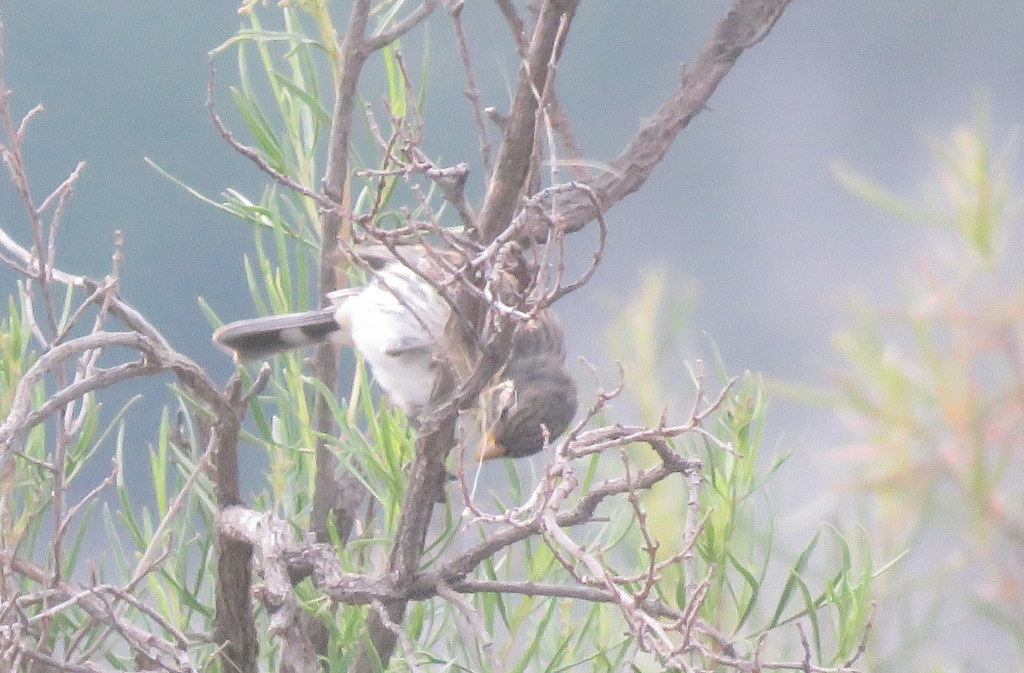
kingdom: Animalia
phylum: Chordata
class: Aves
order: Passeriformes
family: Thraupidae
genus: Catamenia
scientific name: Catamenia analis
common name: Band-tailed seedeater
